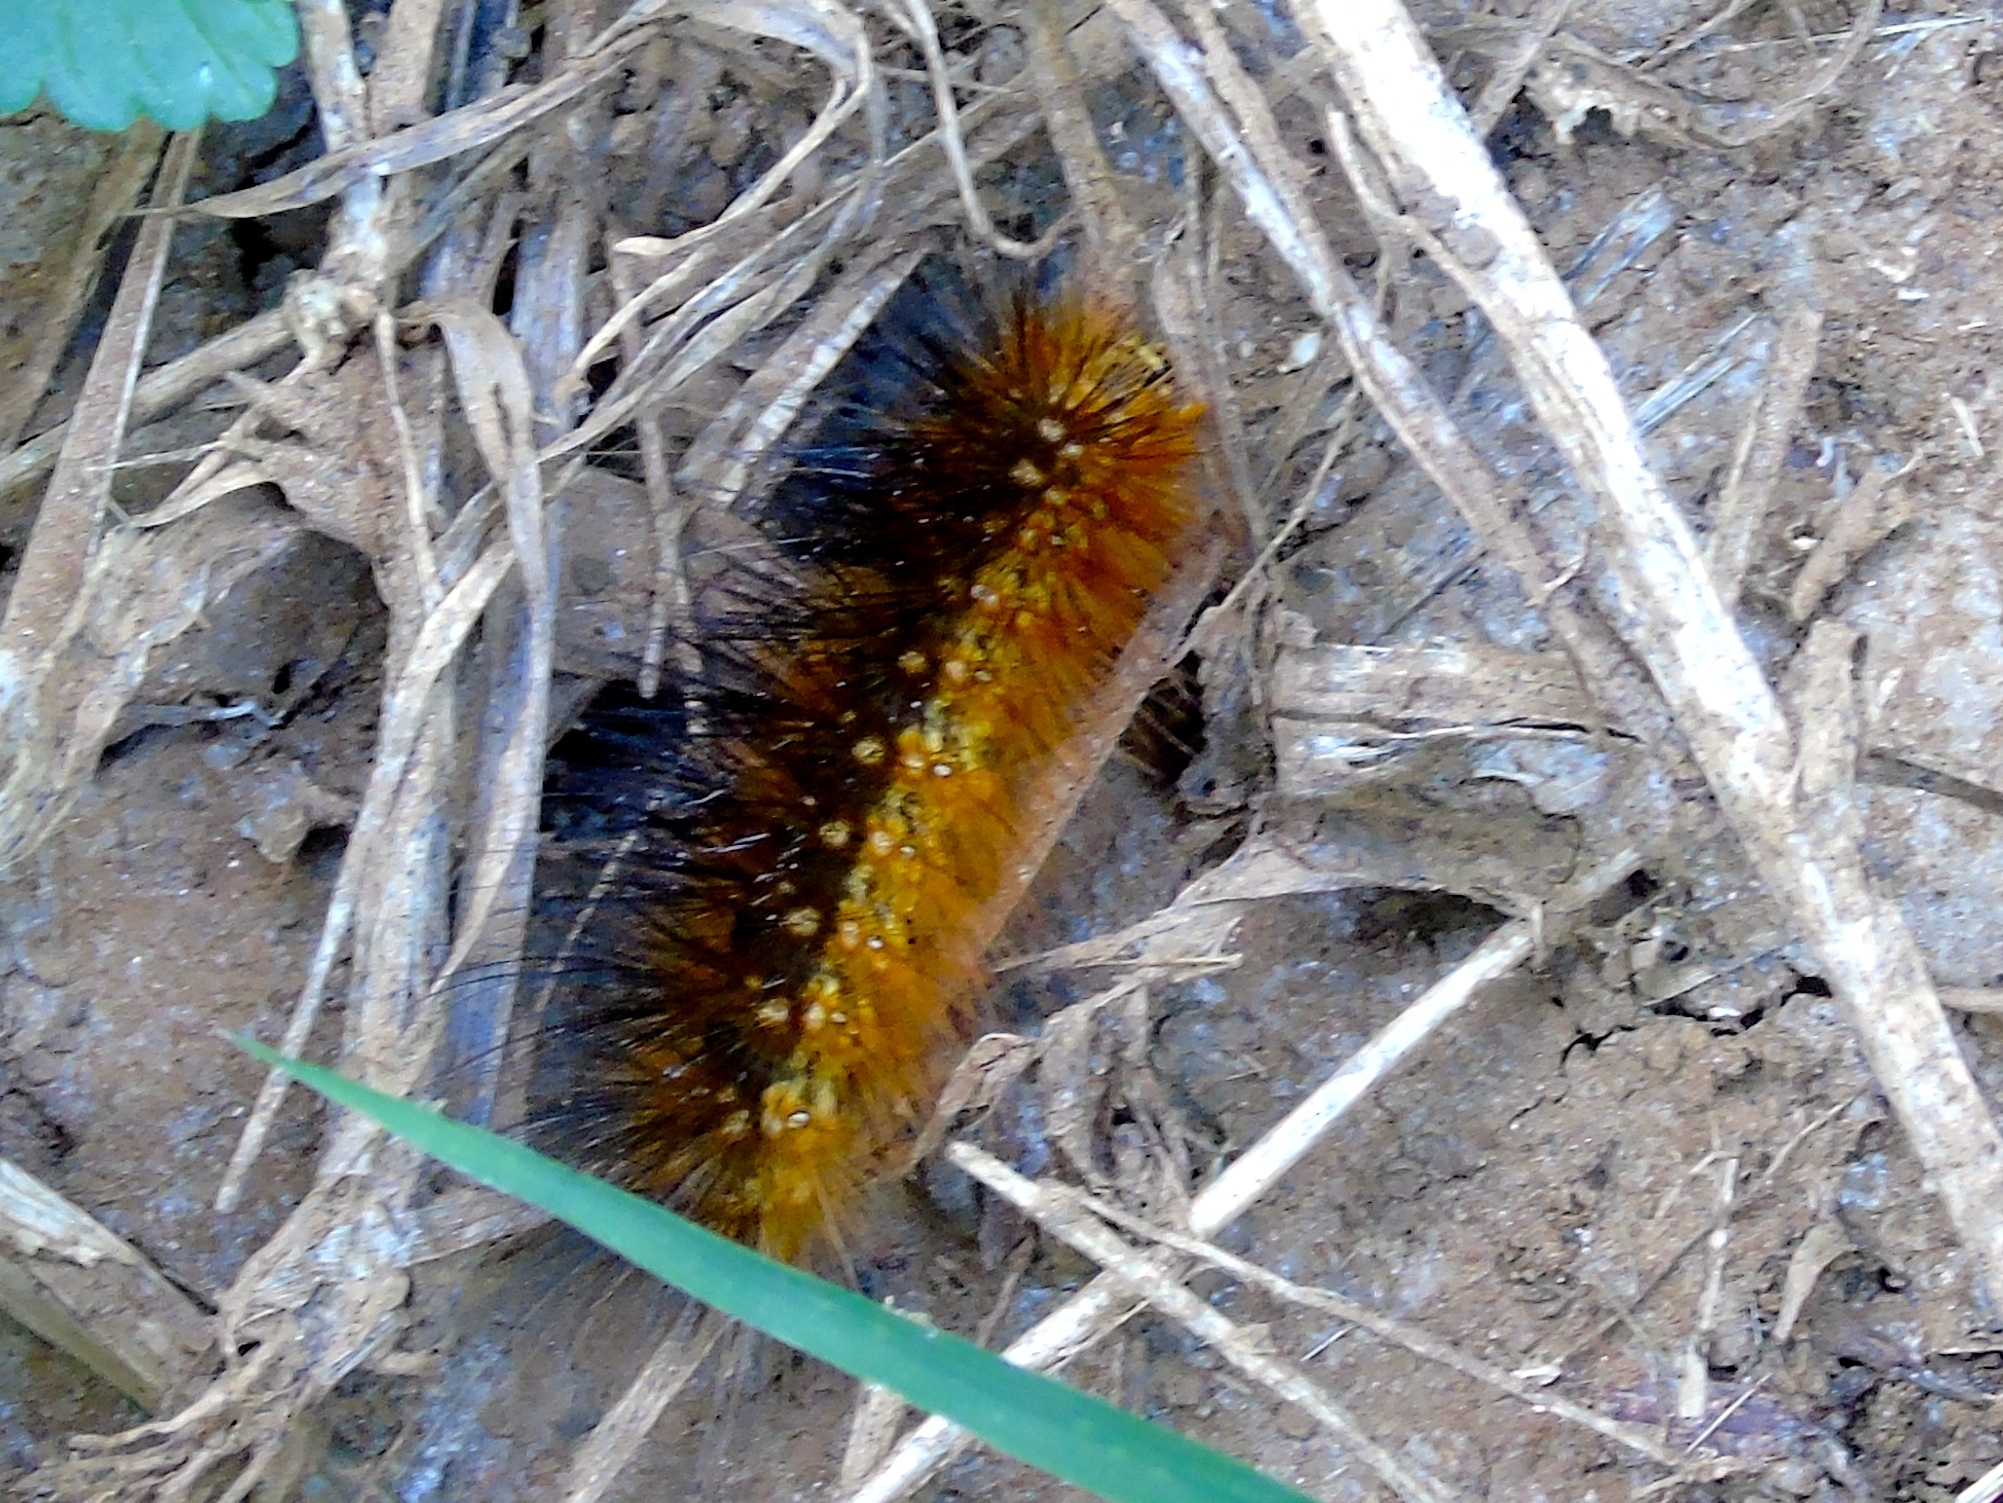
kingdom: Animalia
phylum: Arthropoda
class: Insecta
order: Lepidoptera
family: Erebidae
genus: Estigmene
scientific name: Estigmene acrea
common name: Salt marsh moth
